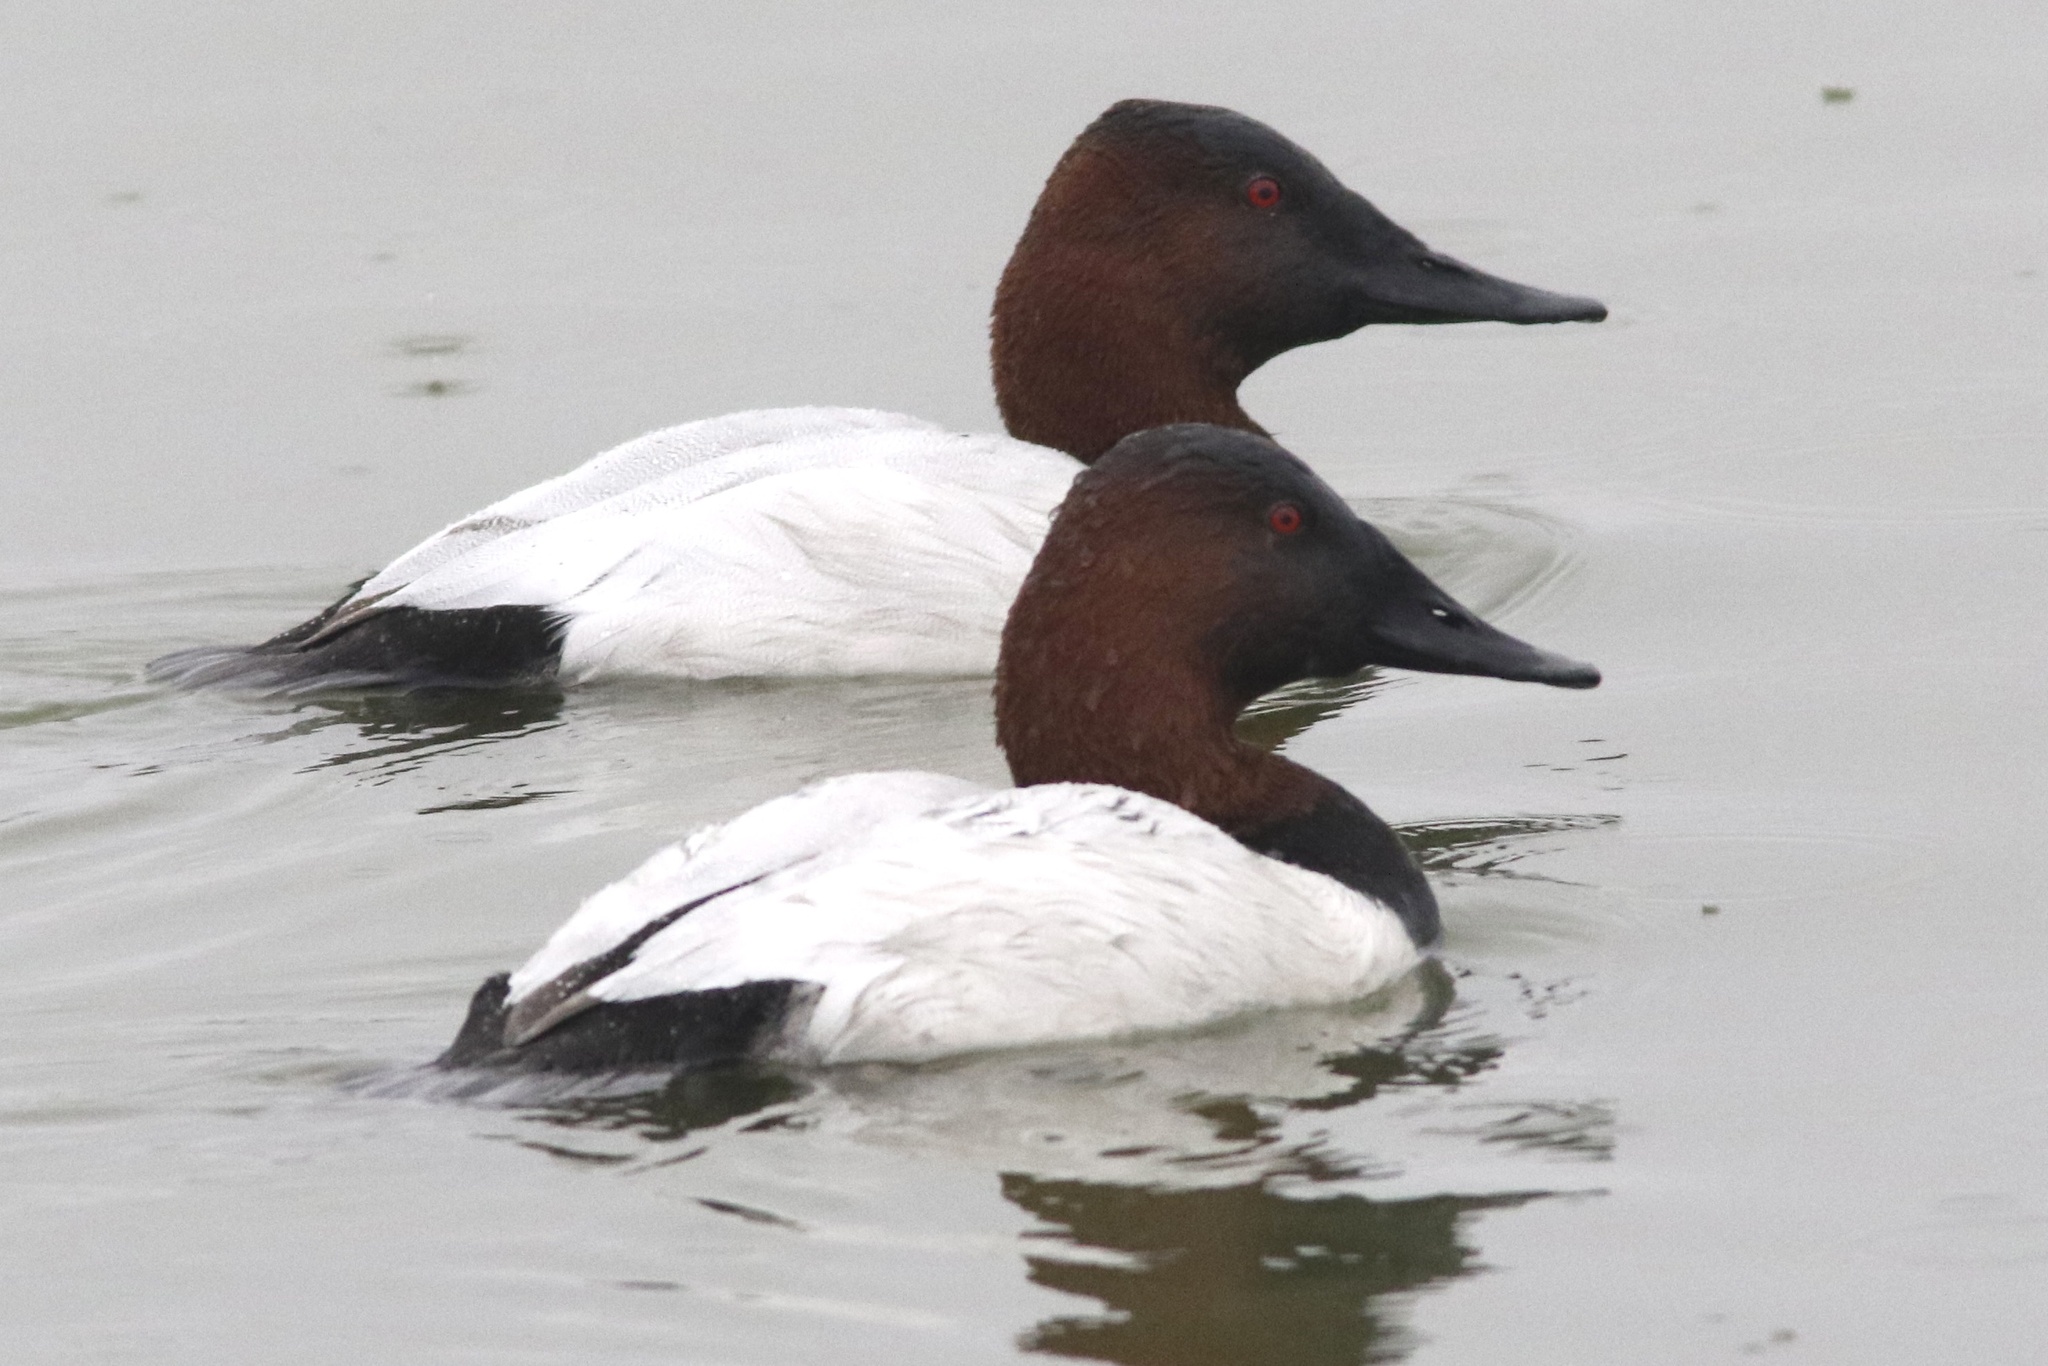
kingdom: Animalia
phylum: Chordata
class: Aves
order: Anseriformes
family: Anatidae
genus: Aythya
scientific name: Aythya valisineria
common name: Canvasback
